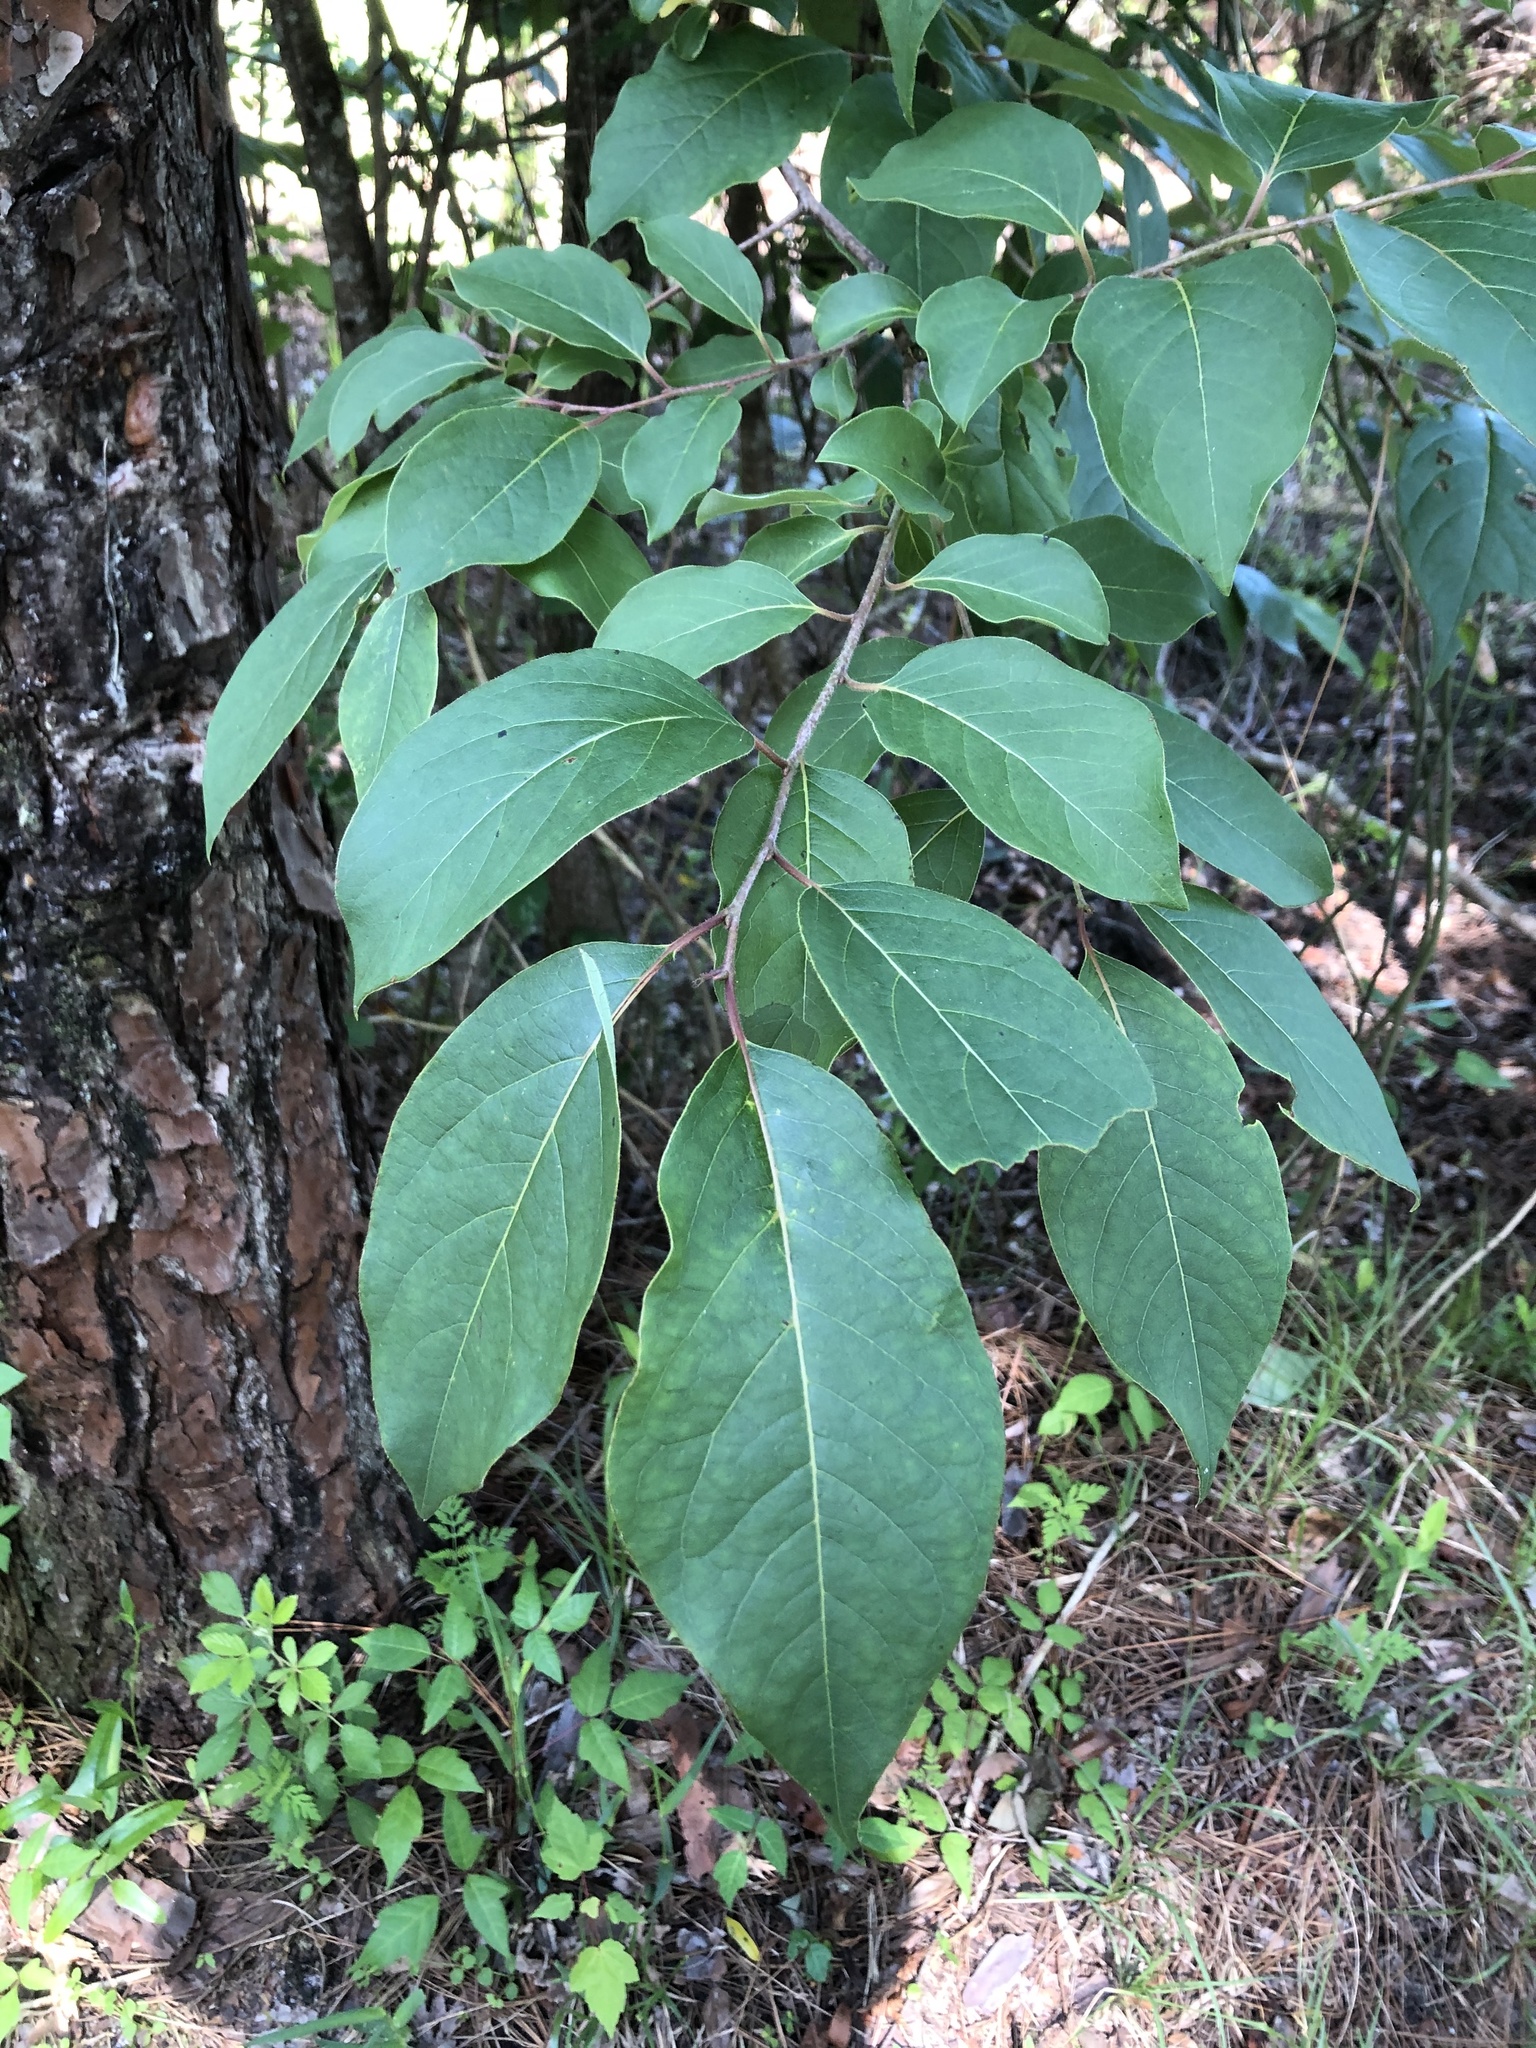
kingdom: Plantae
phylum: Tracheophyta
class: Magnoliopsida
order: Ericales
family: Ebenaceae
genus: Diospyros
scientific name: Diospyros virginiana
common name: Persimmon
